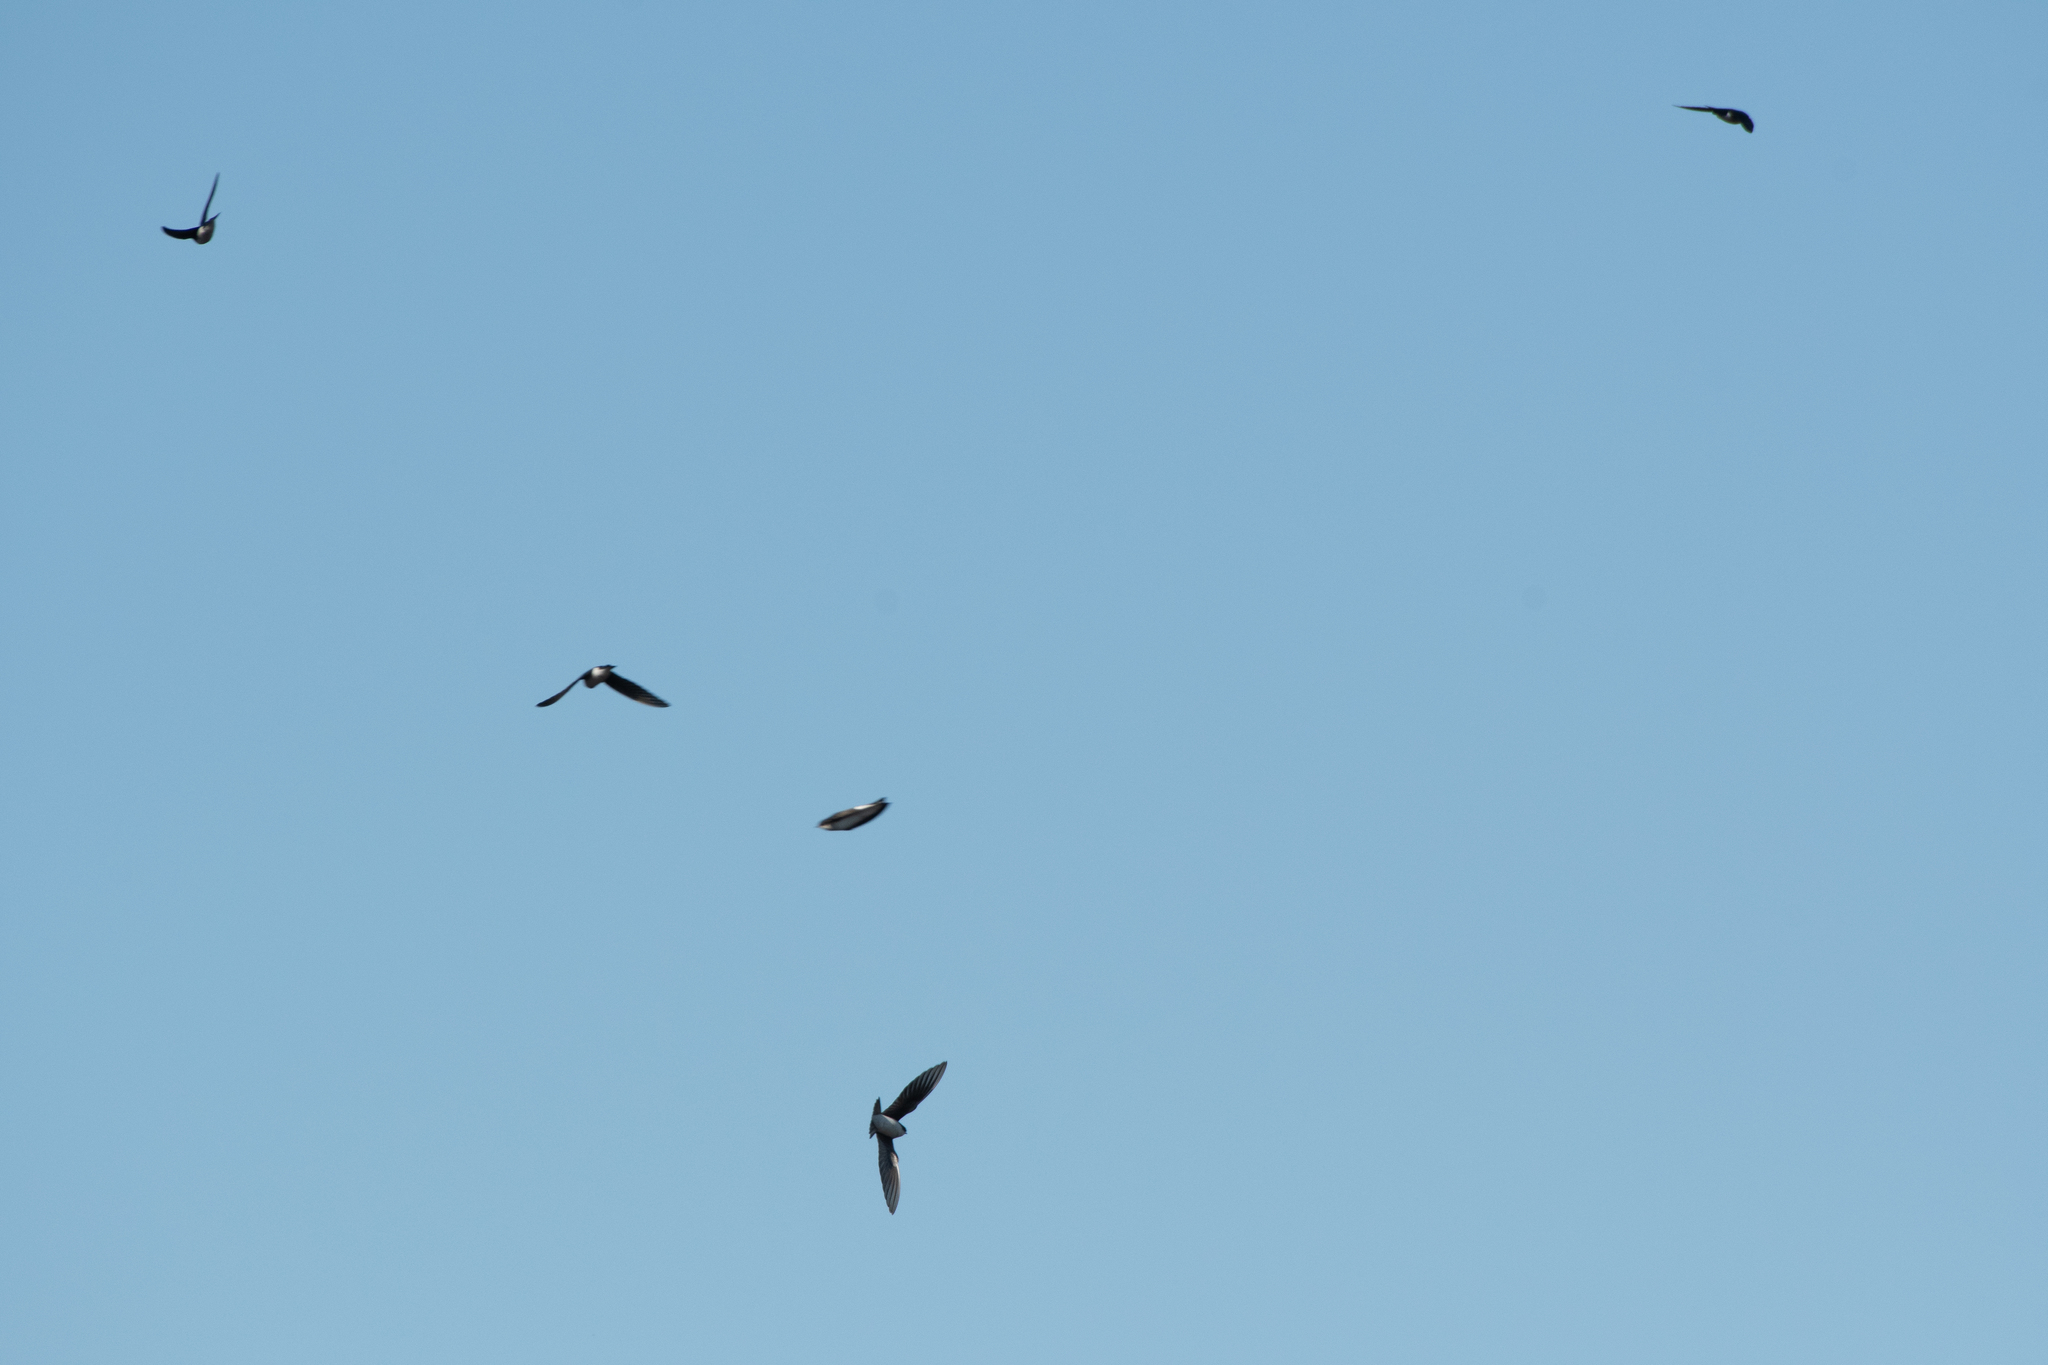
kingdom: Animalia
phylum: Chordata
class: Aves
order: Passeriformes
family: Hirundinidae
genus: Tachycineta
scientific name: Tachycineta bicolor
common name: Tree swallow
